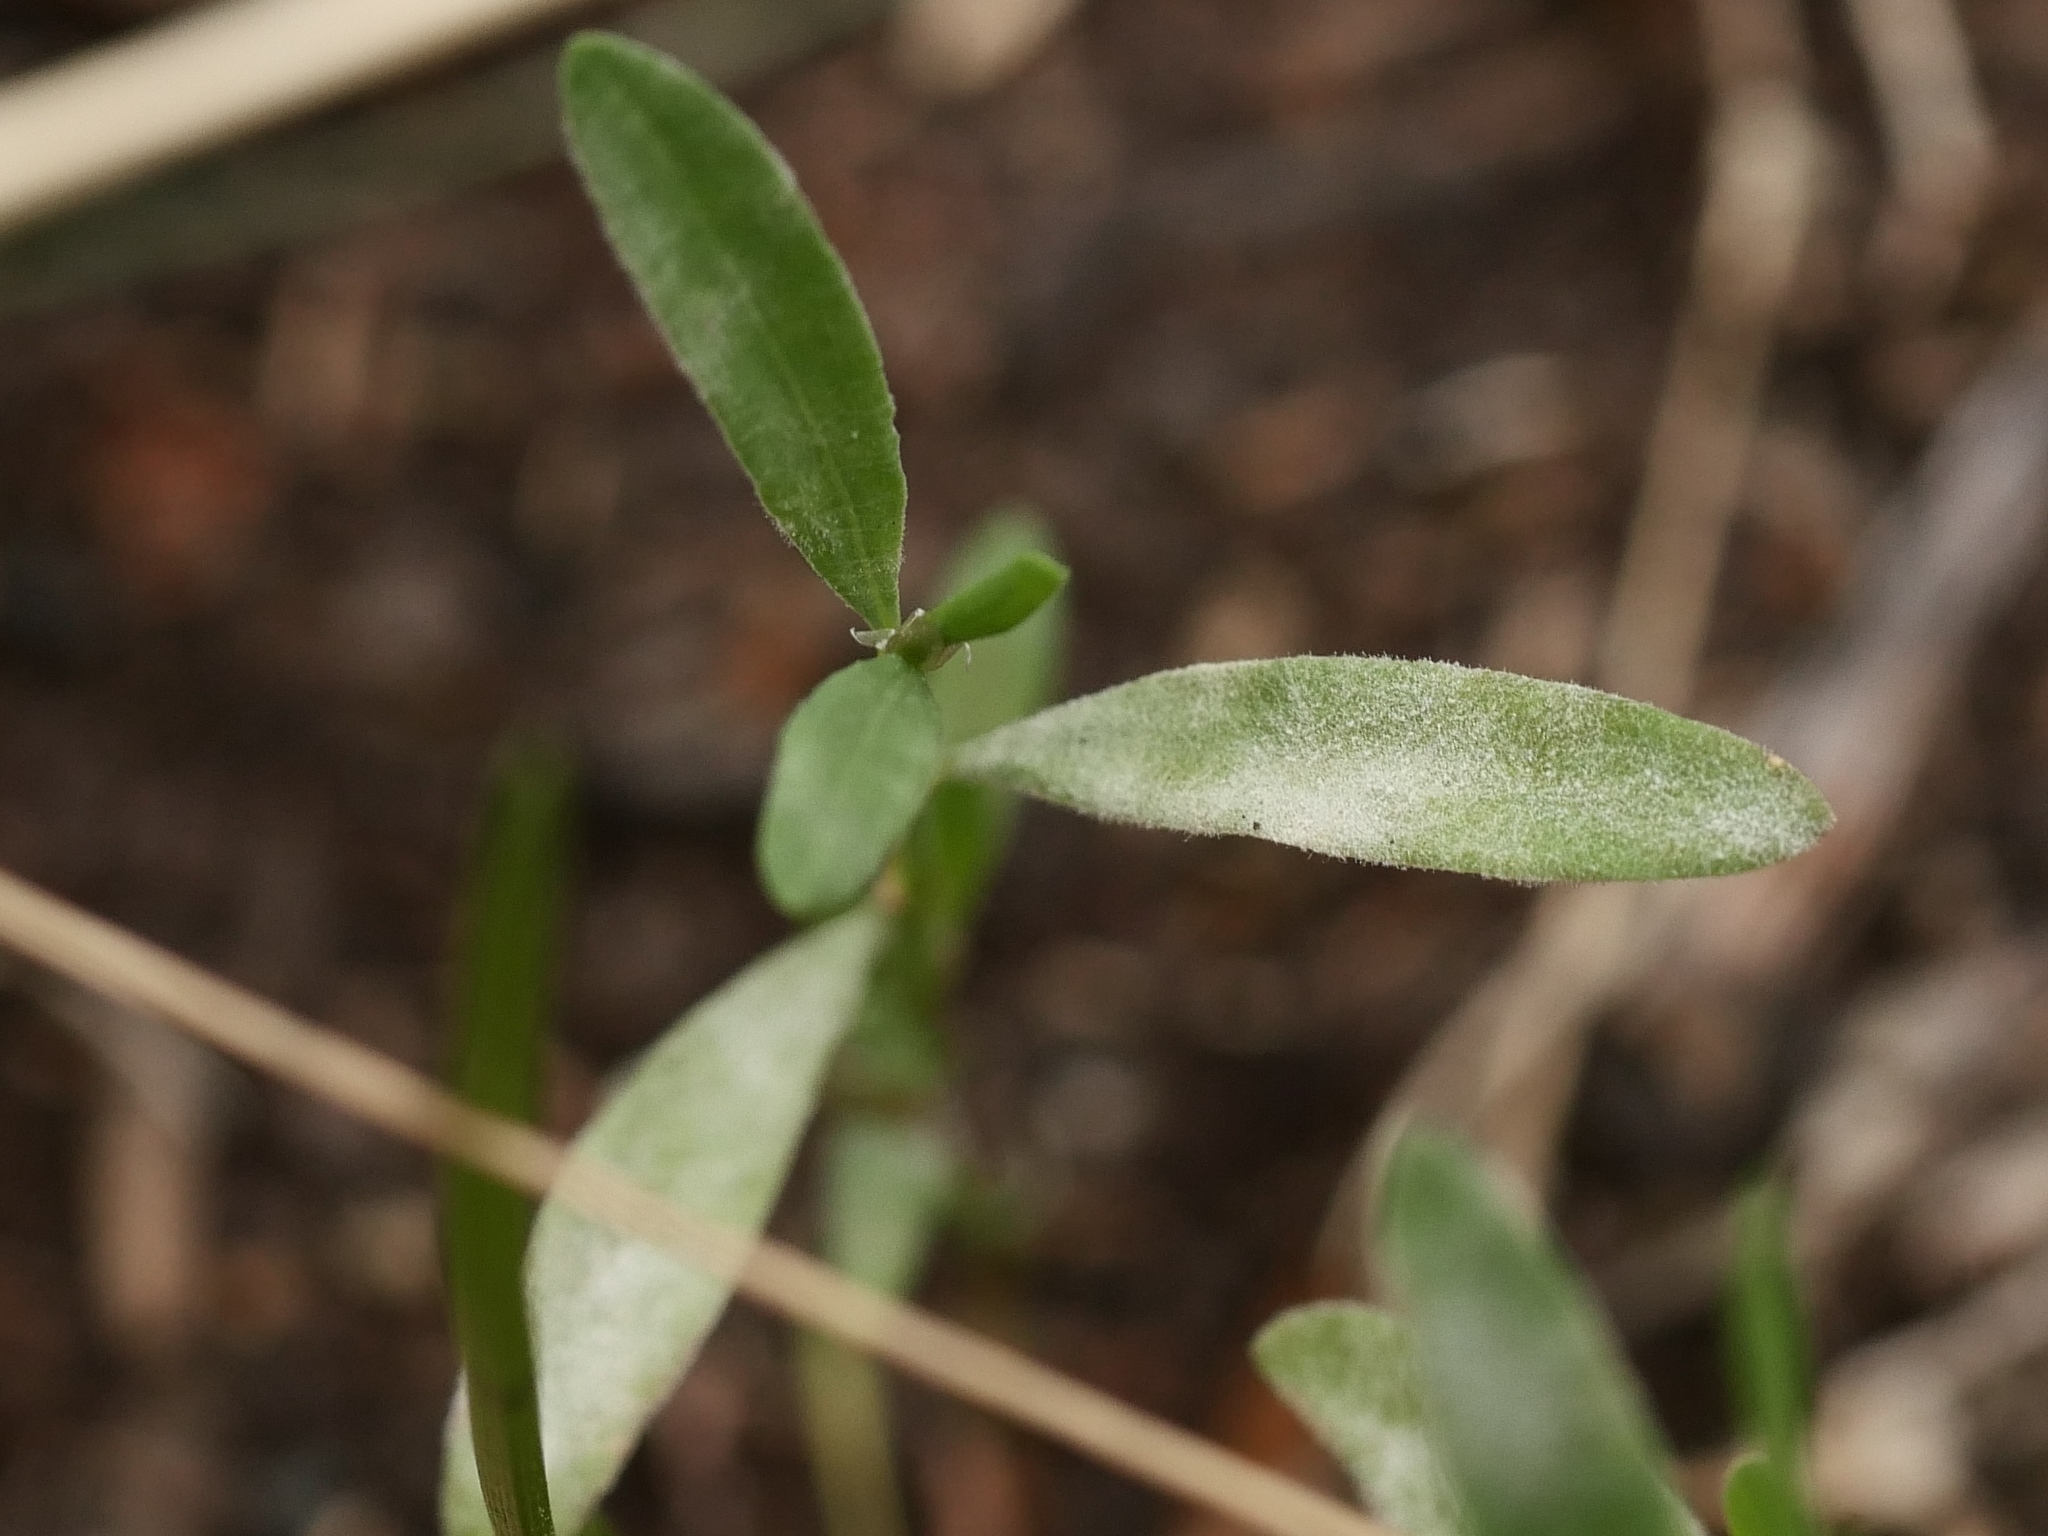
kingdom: Fungi
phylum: Ascomycota
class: Leotiomycetes
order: Helotiales
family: Erysiphaceae
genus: Erysiphe
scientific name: Erysiphe polygoni
